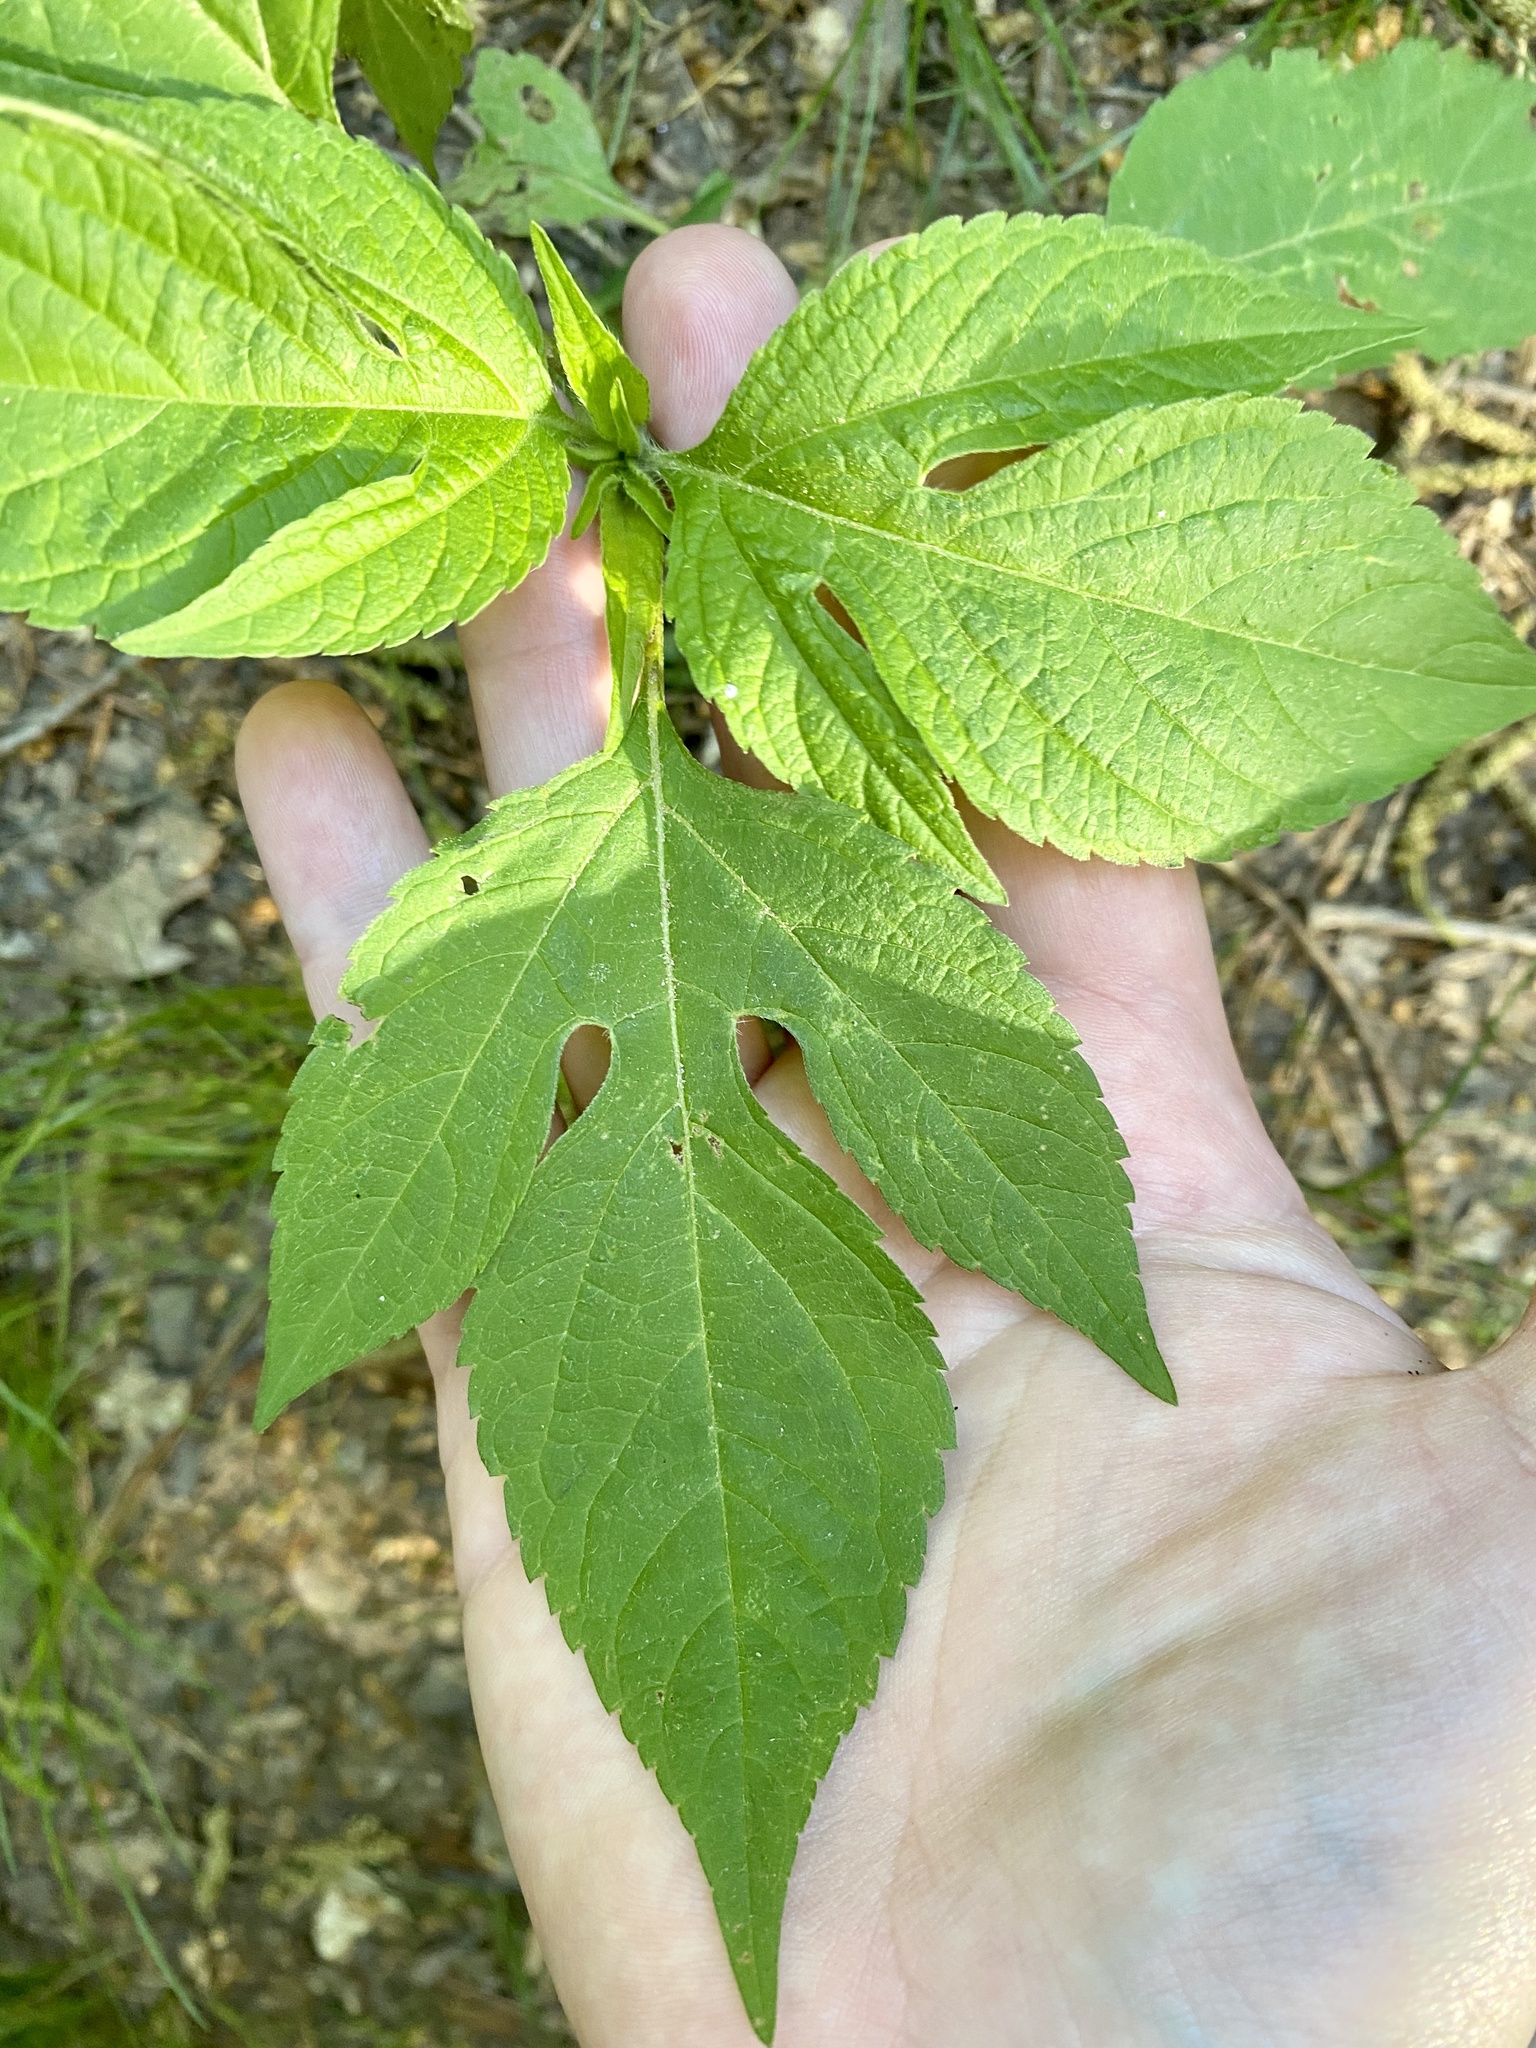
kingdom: Plantae
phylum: Tracheophyta
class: Magnoliopsida
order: Asterales
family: Asteraceae
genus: Ambrosia
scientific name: Ambrosia trifida
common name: Giant ragweed
